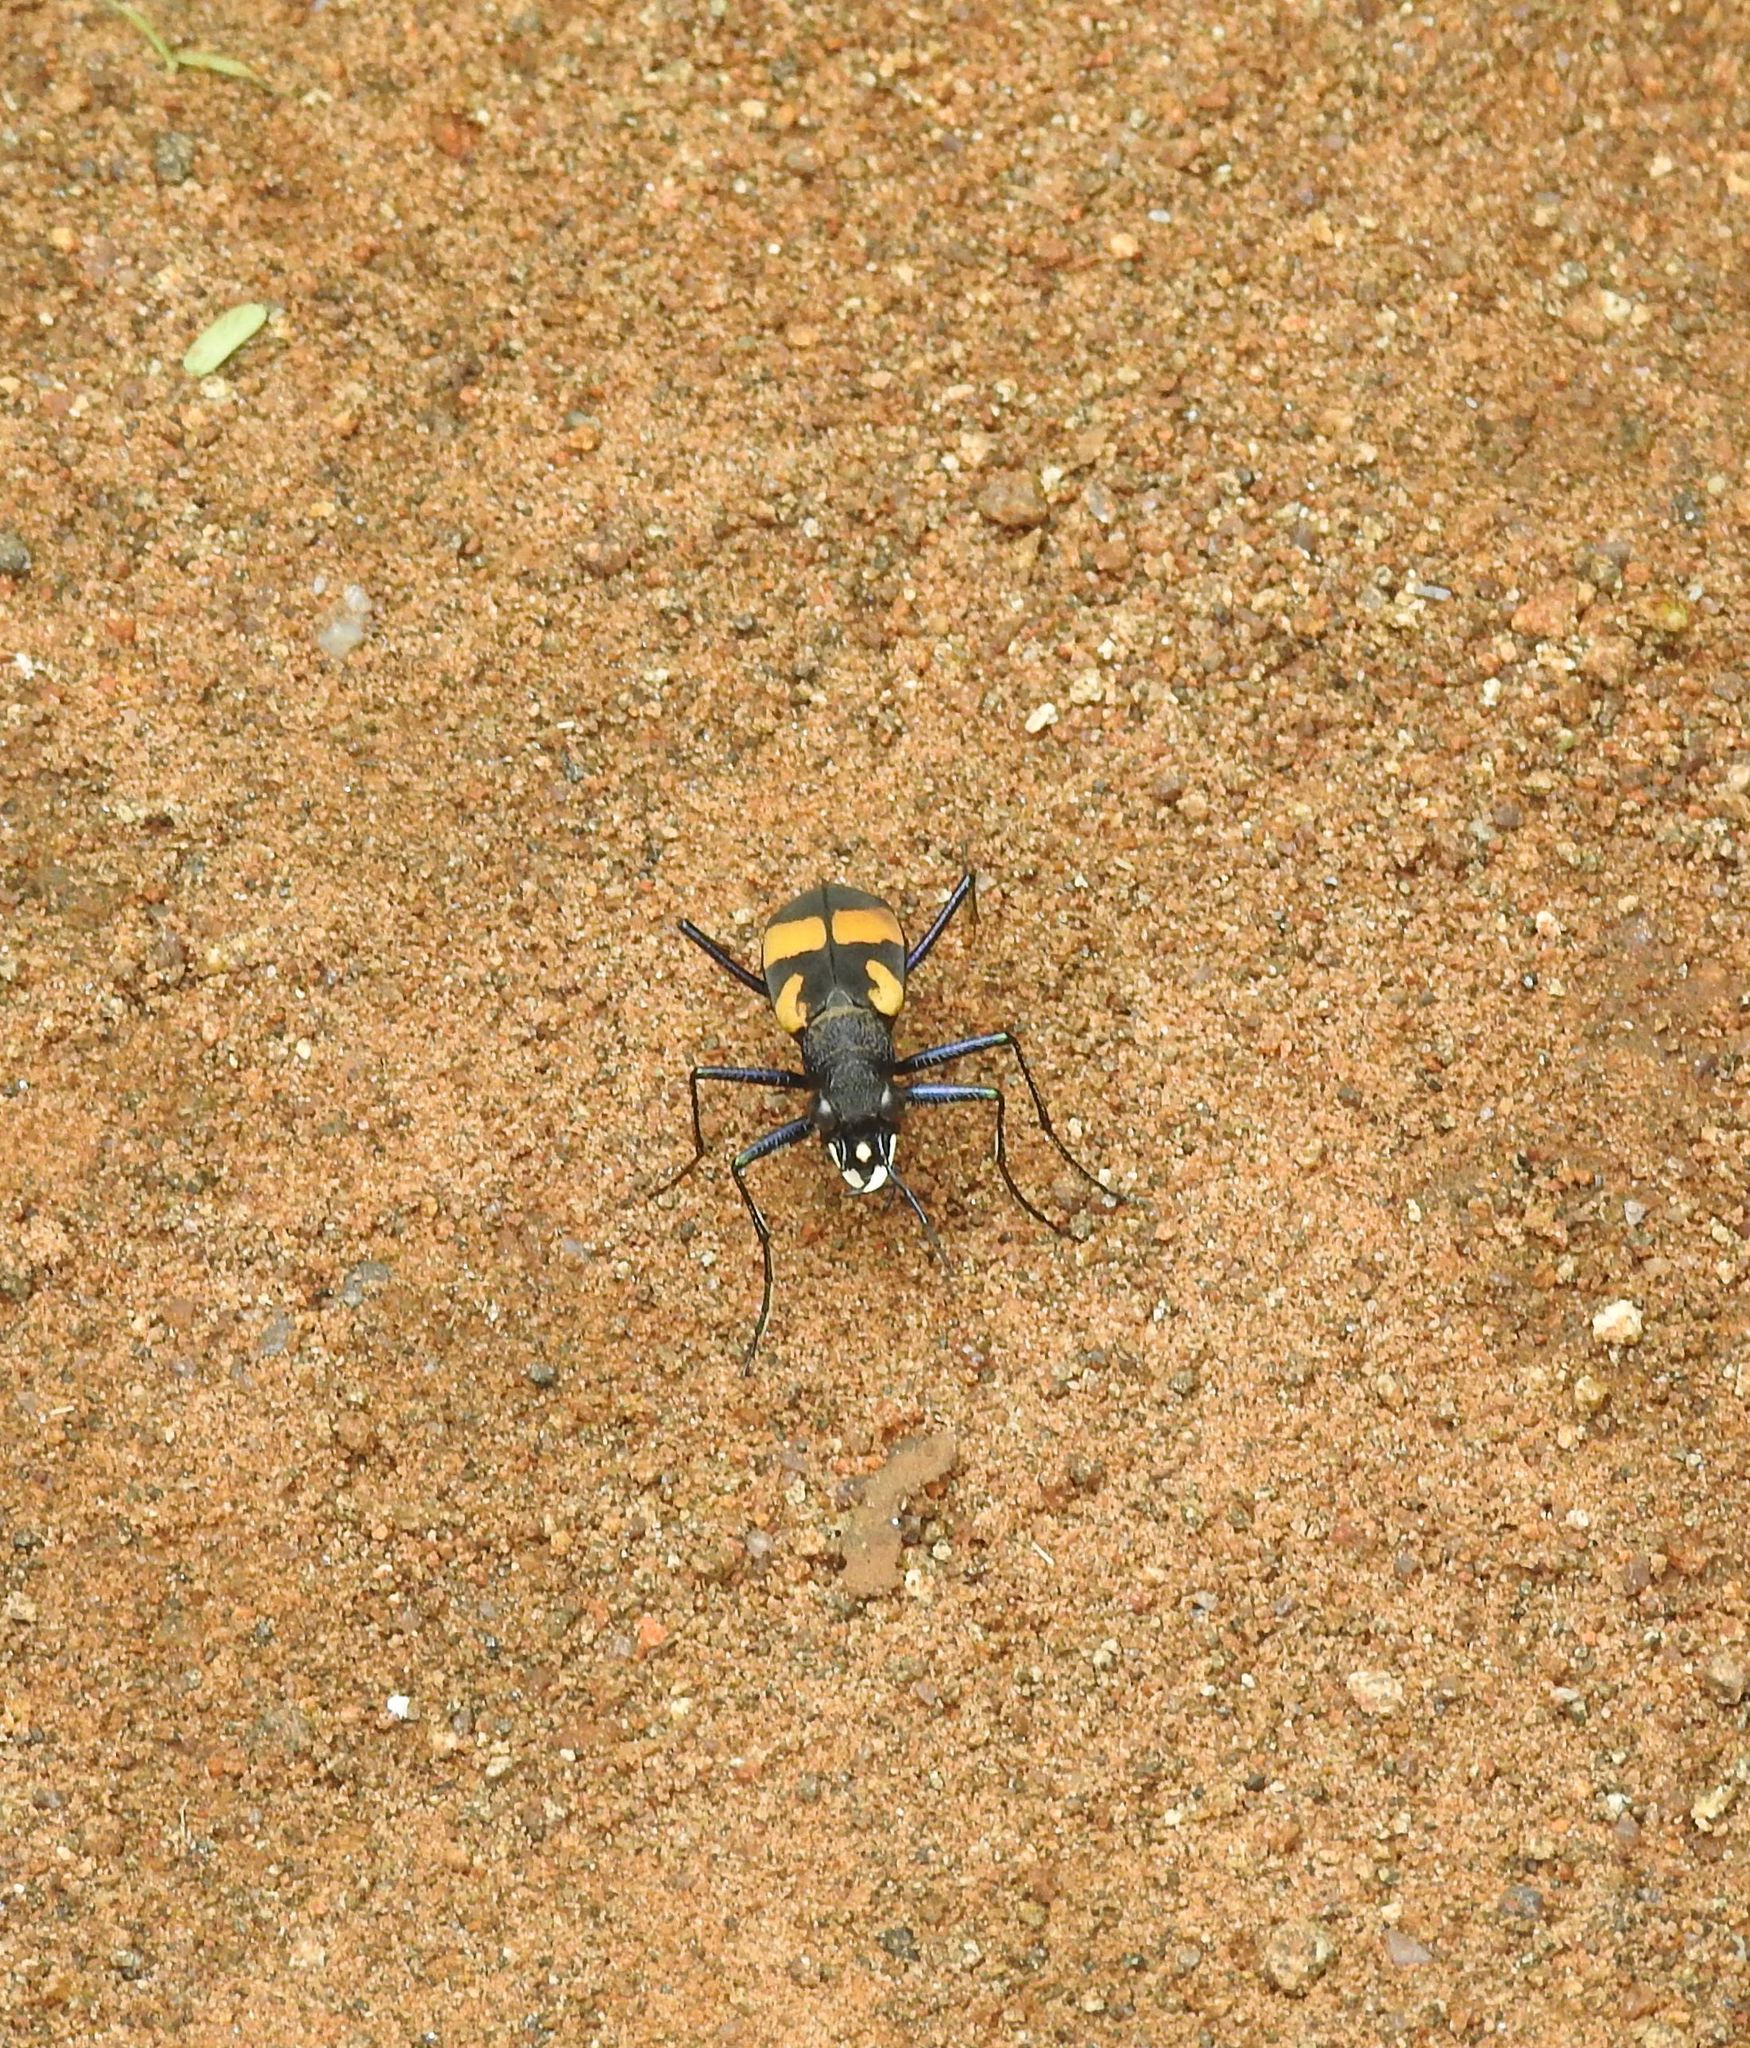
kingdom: Animalia
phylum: Arthropoda
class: Insecta
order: Coleoptera
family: Carabidae
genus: Cicindela
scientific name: Cicindela princeps
